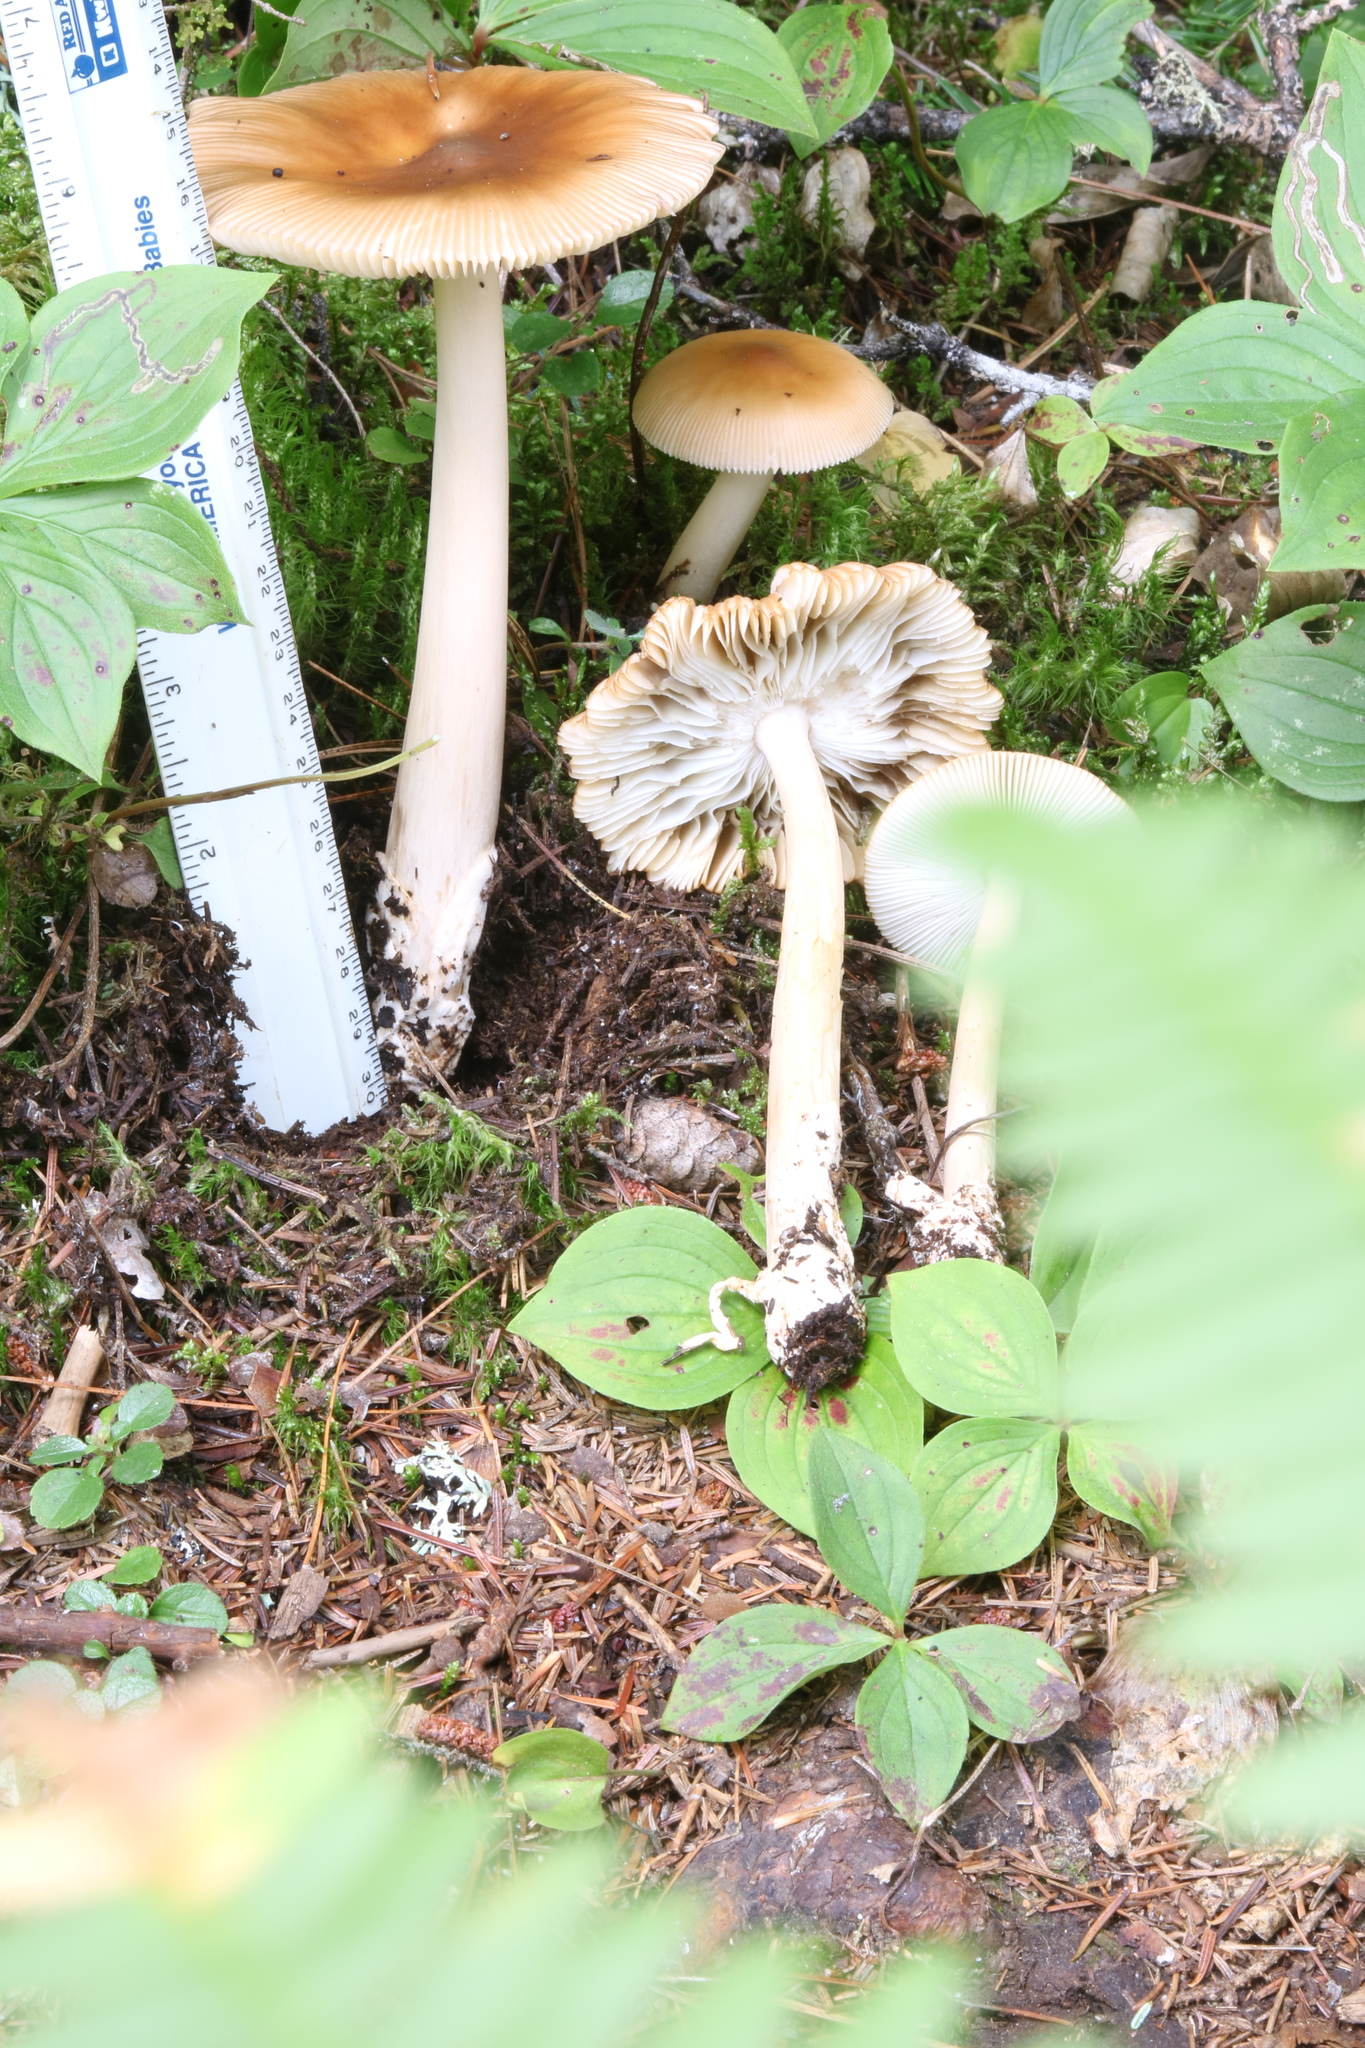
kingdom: Fungi
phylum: Basidiomycota
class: Agaricomycetes
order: Agaricales
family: Amanitaceae
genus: Amanita
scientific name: Amanita fulva
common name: Tawny grisette
